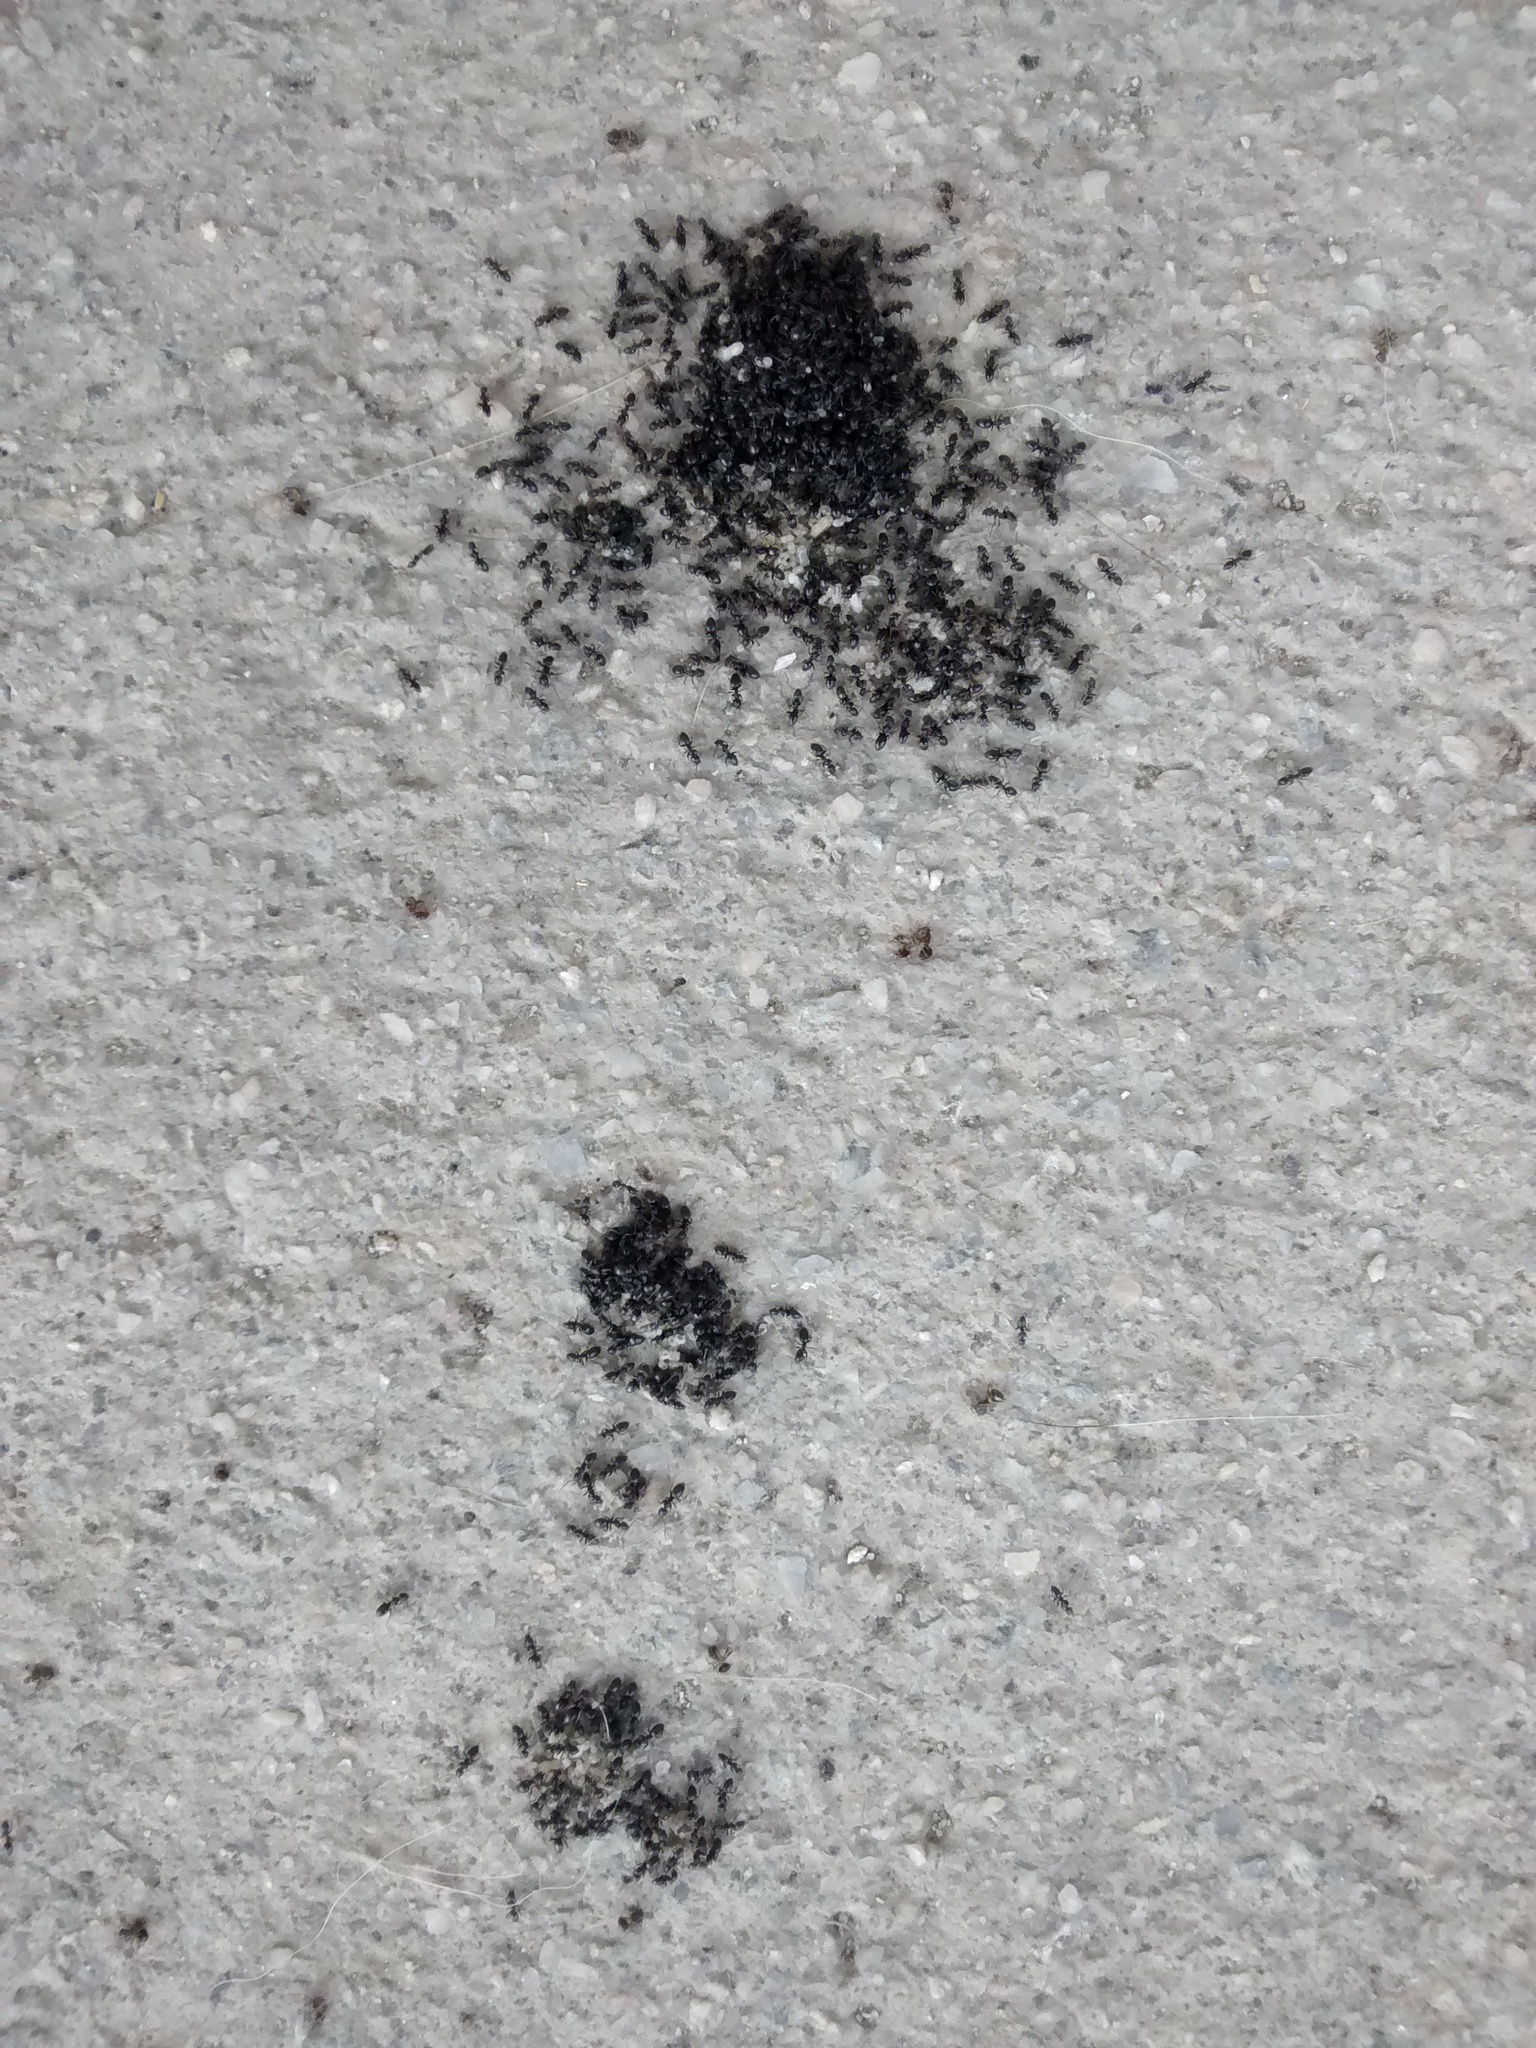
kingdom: Animalia
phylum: Arthropoda
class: Insecta
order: Hymenoptera
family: Formicidae
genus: Tapinoma
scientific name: Tapinoma erraticum
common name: Erratic ant
